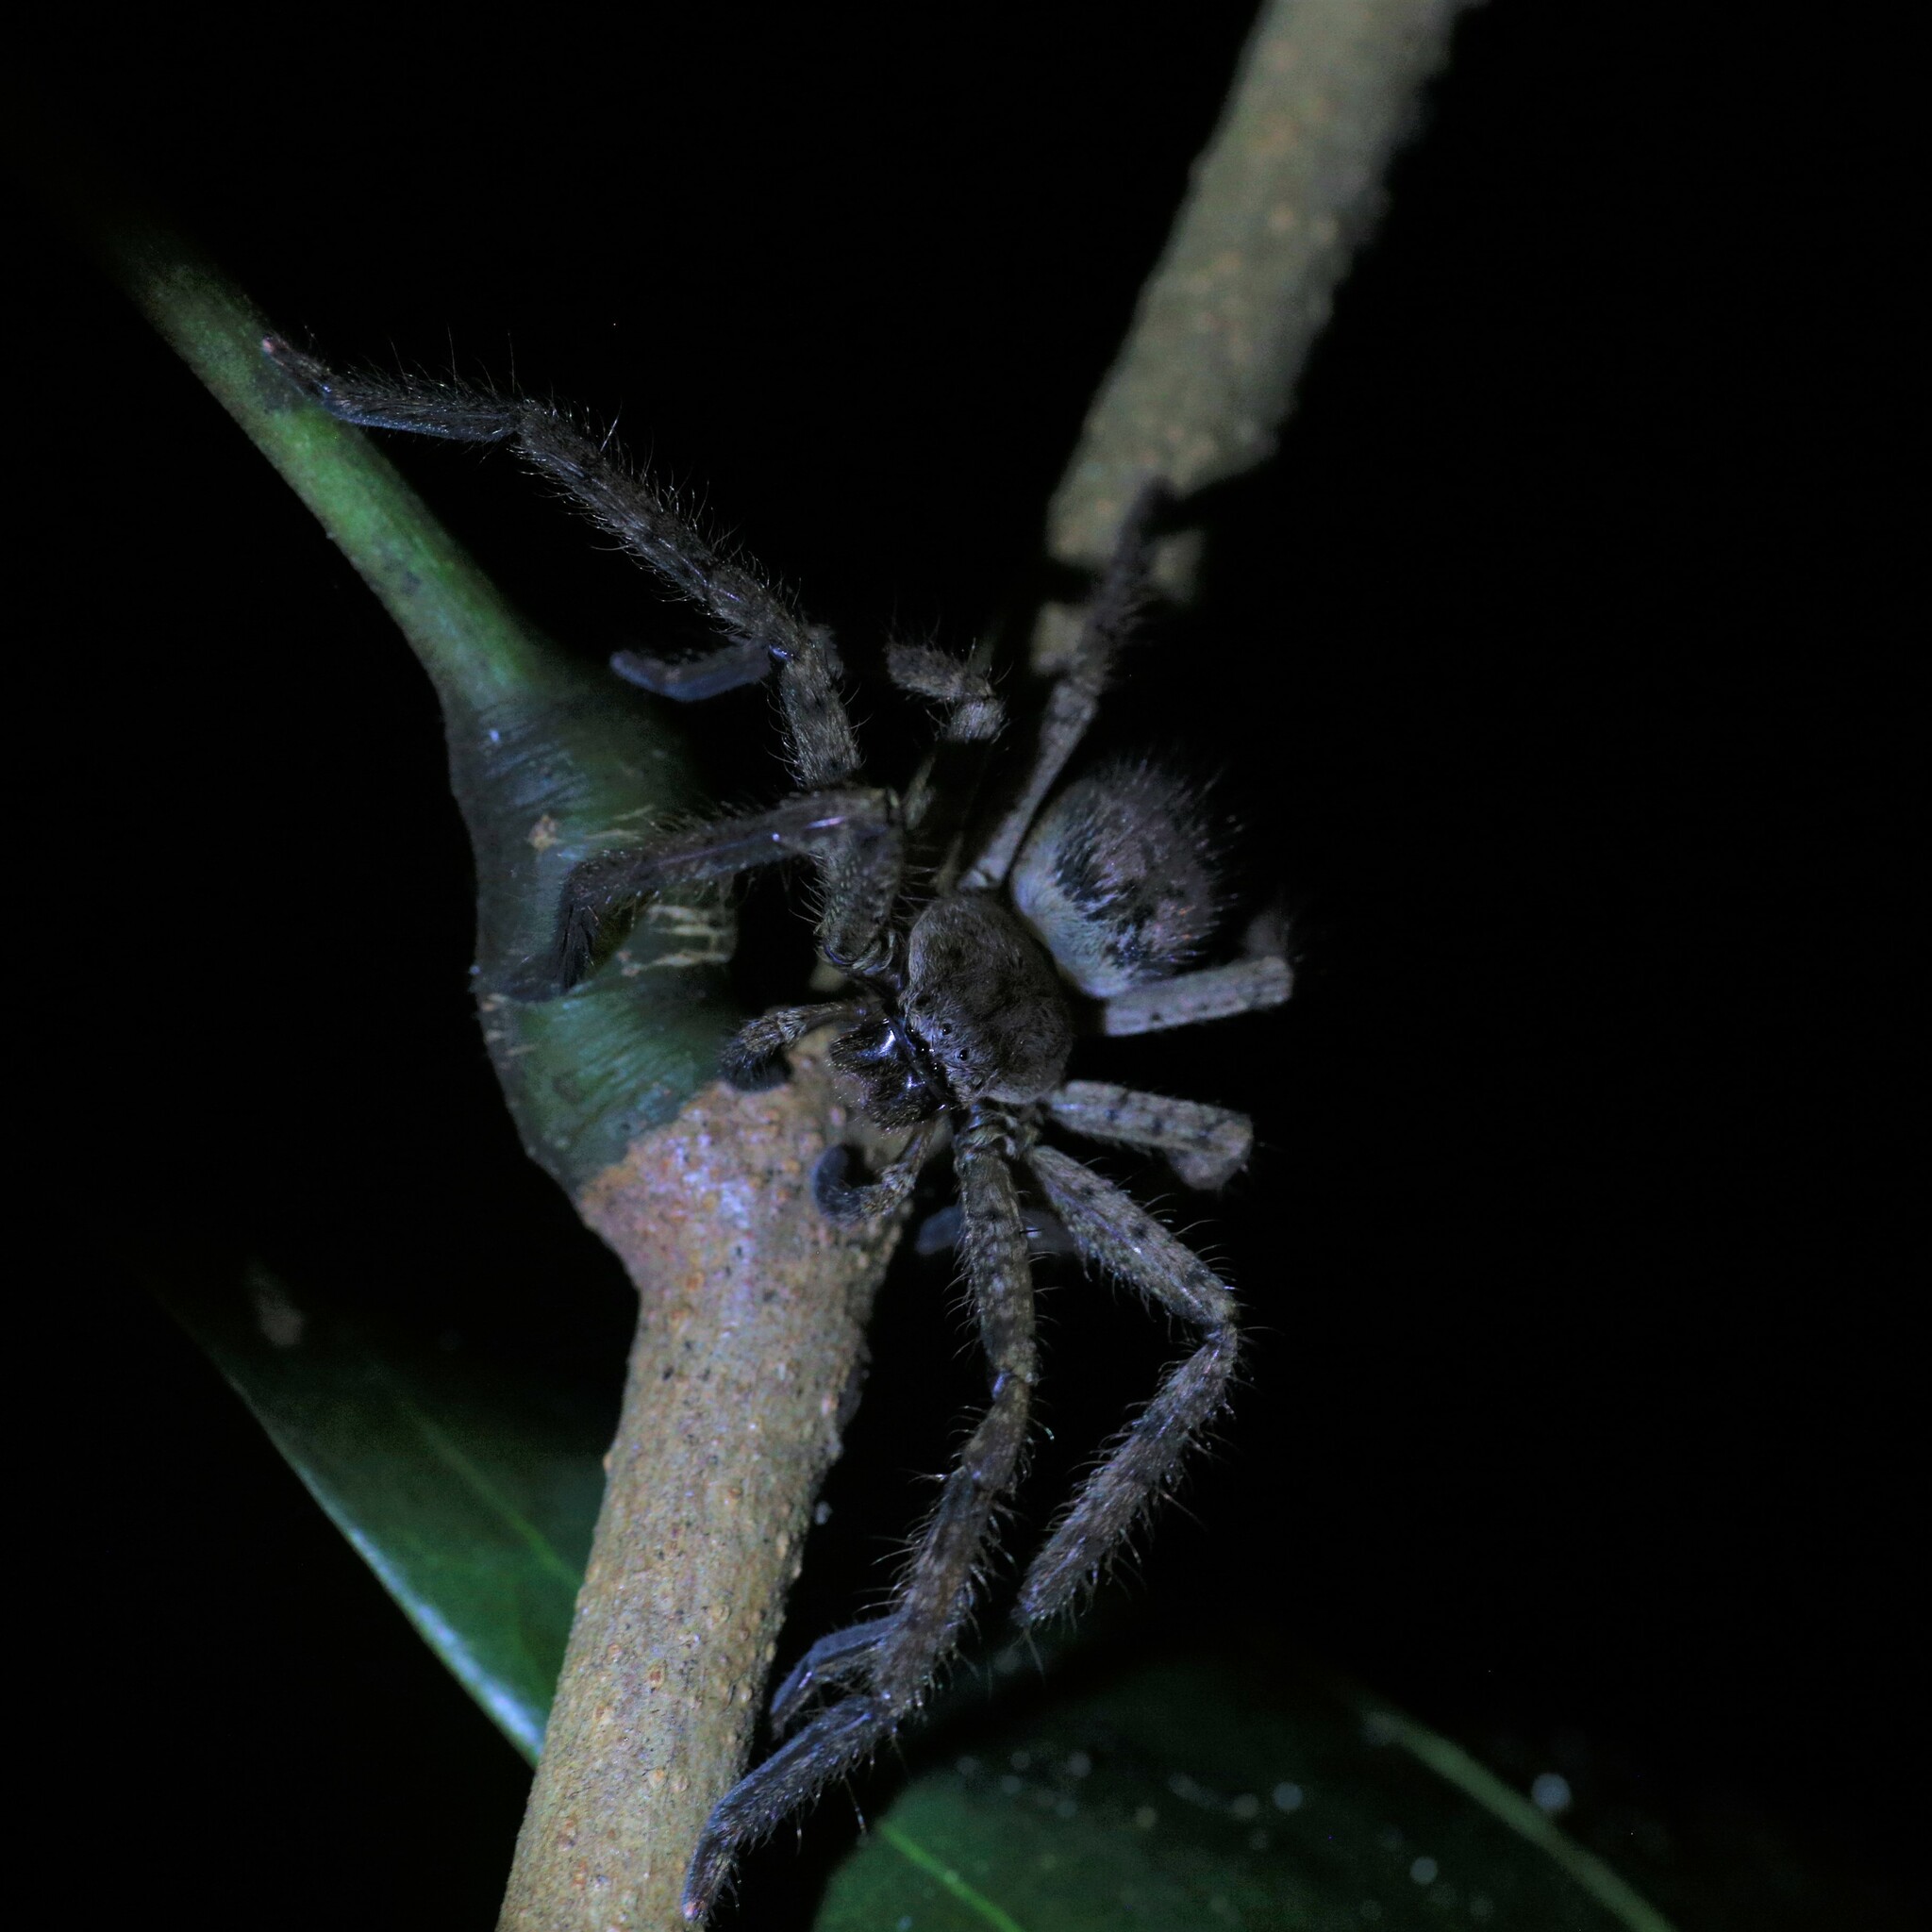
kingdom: Animalia
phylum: Arthropoda
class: Arachnida
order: Araneae
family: Sparassidae
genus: Beregama
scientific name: Beregama cordata
